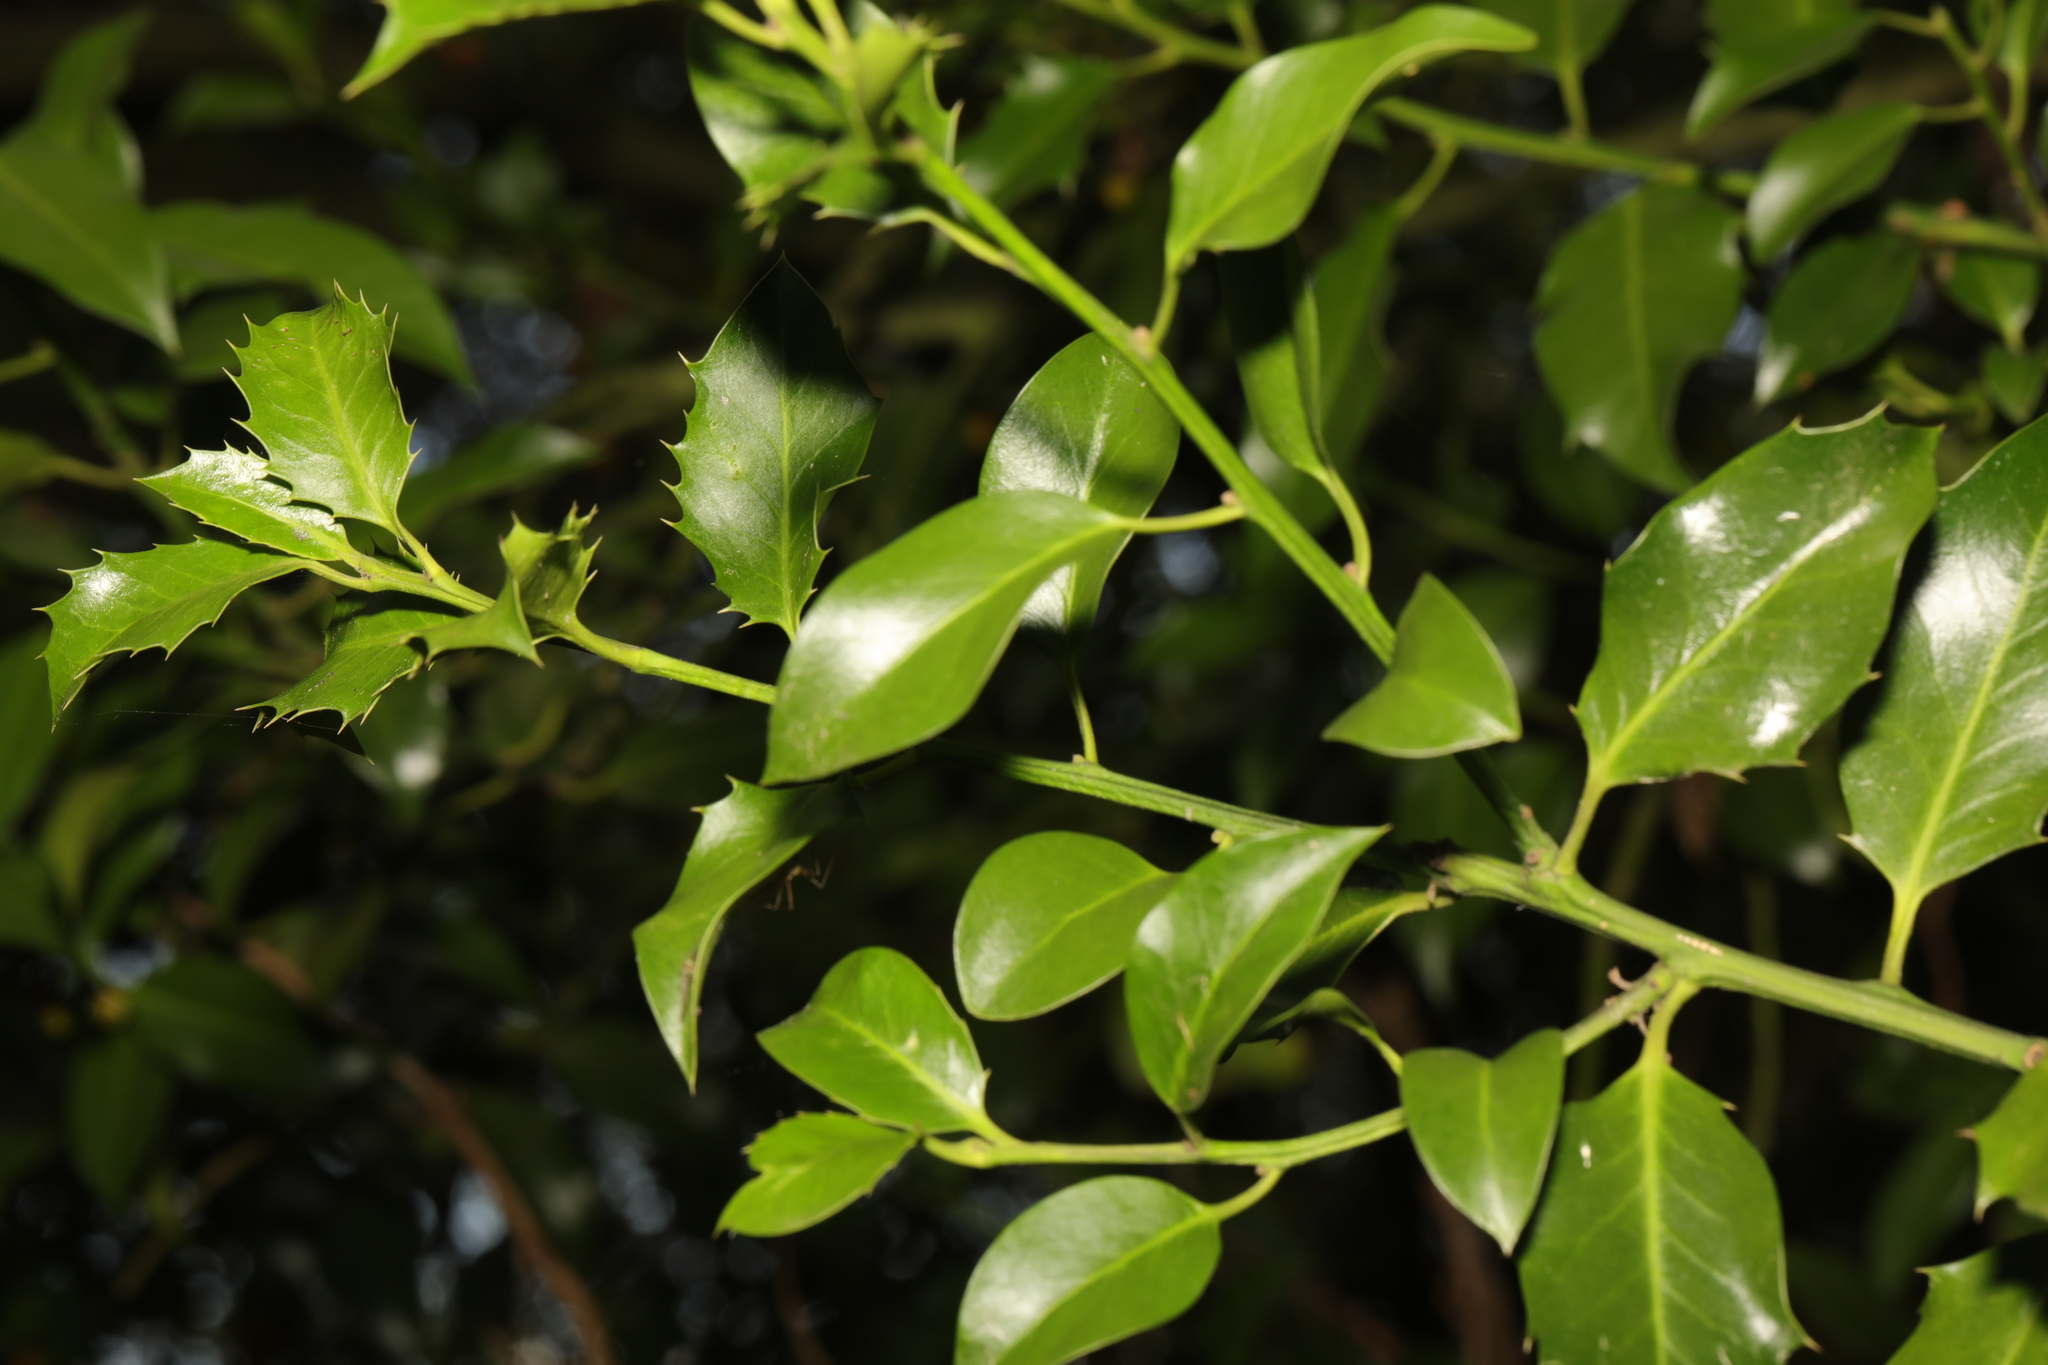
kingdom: Plantae
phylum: Tracheophyta
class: Magnoliopsida
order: Aquifoliales
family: Aquifoliaceae
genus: Ilex
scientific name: Ilex aquifolium
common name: English holly
